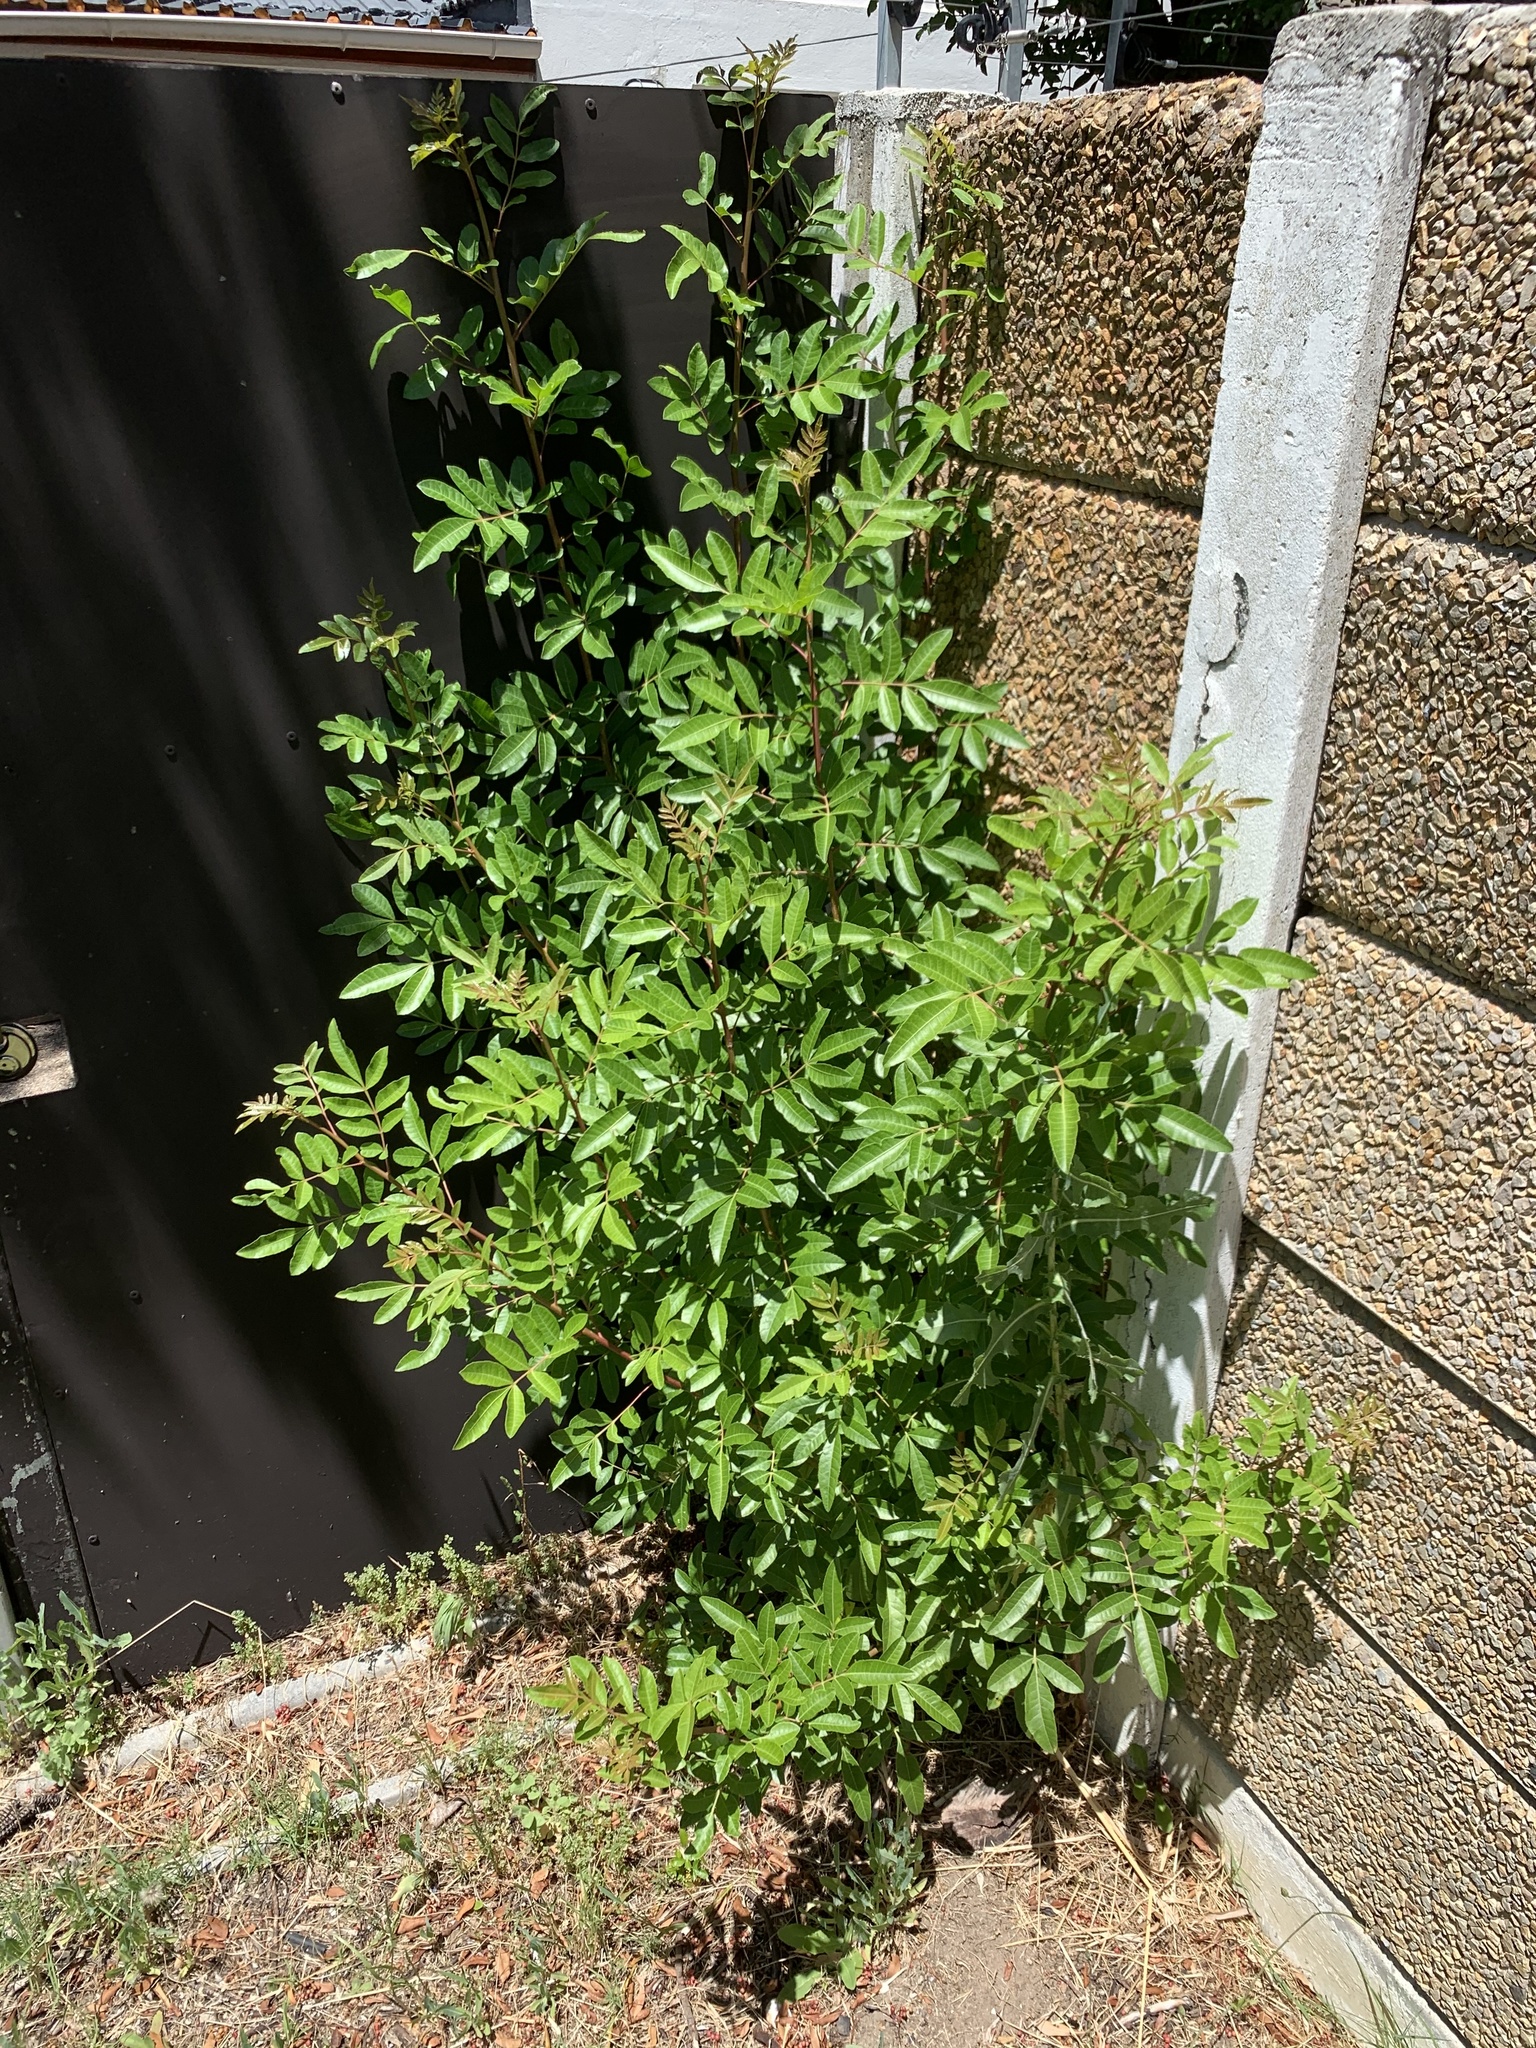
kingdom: Plantae
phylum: Tracheophyta
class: Magnoliopsida
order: Sapindales
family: Anacardiaceae
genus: Schinus
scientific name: Schinus terebinthifolia
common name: Brazilian peppertree
